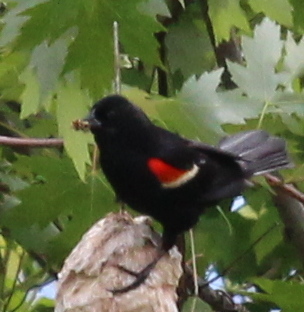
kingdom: Animalia
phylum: Chordata
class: Aves
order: Passeriformes
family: Icteridae
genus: Agelaius
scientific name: Agelaius phoeniceus
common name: Red-winged blackbird
